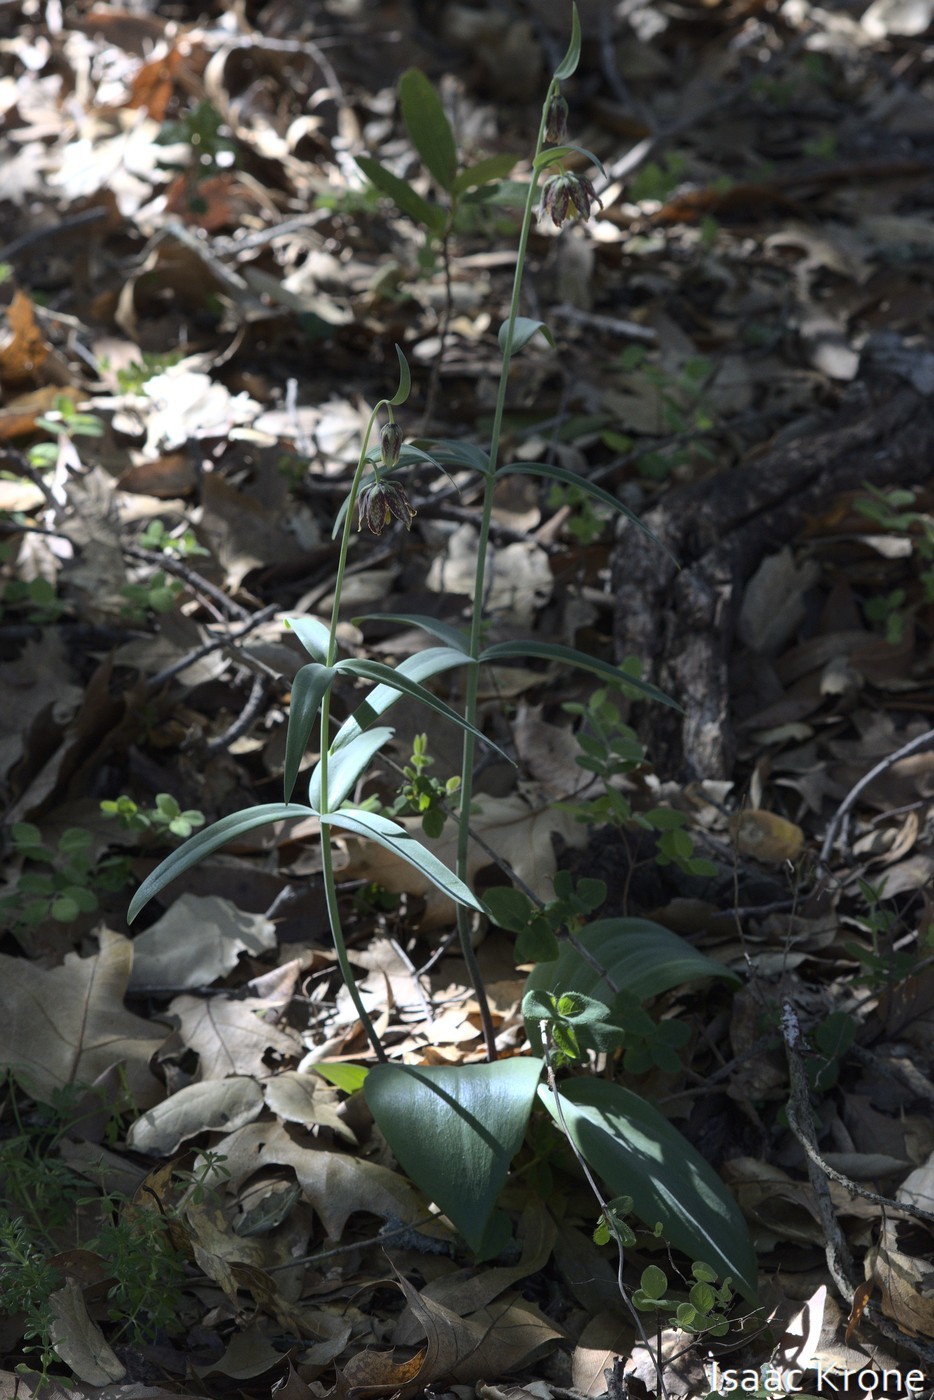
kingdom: Plantae
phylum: Tracheophyta
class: Liliopsida
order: Liliales
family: Liliaceae
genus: Fritillaria
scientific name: Fritillaria affinis
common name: Ojai fritillary
